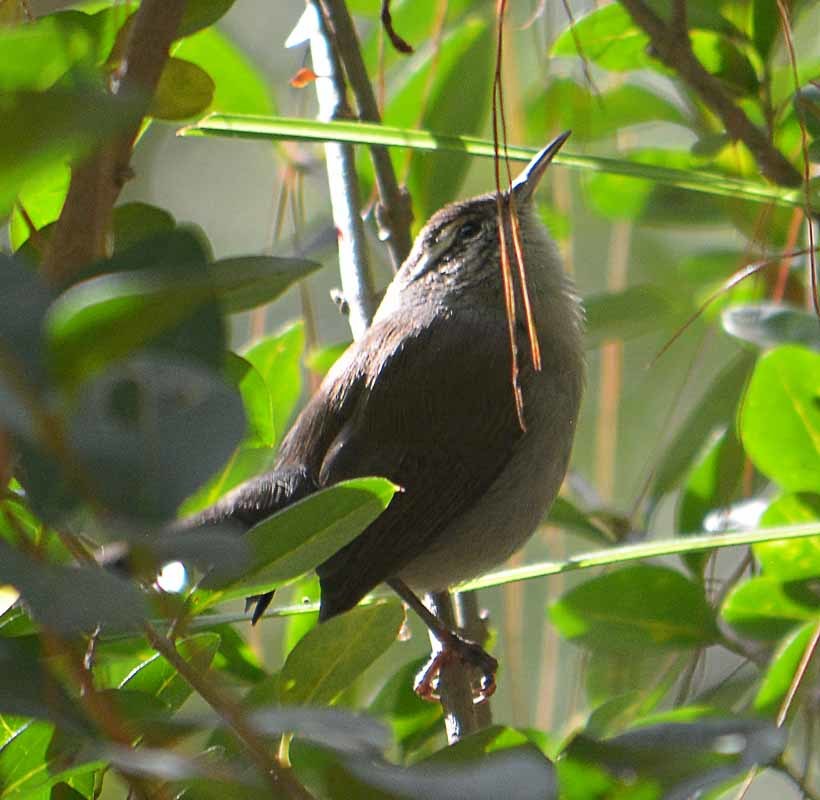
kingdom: Animalia
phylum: Chordata
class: Aves
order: Passeriformes
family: Troglodytidae
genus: Thryomanes
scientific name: Thryomanes bewickii
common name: Bewick's wren
